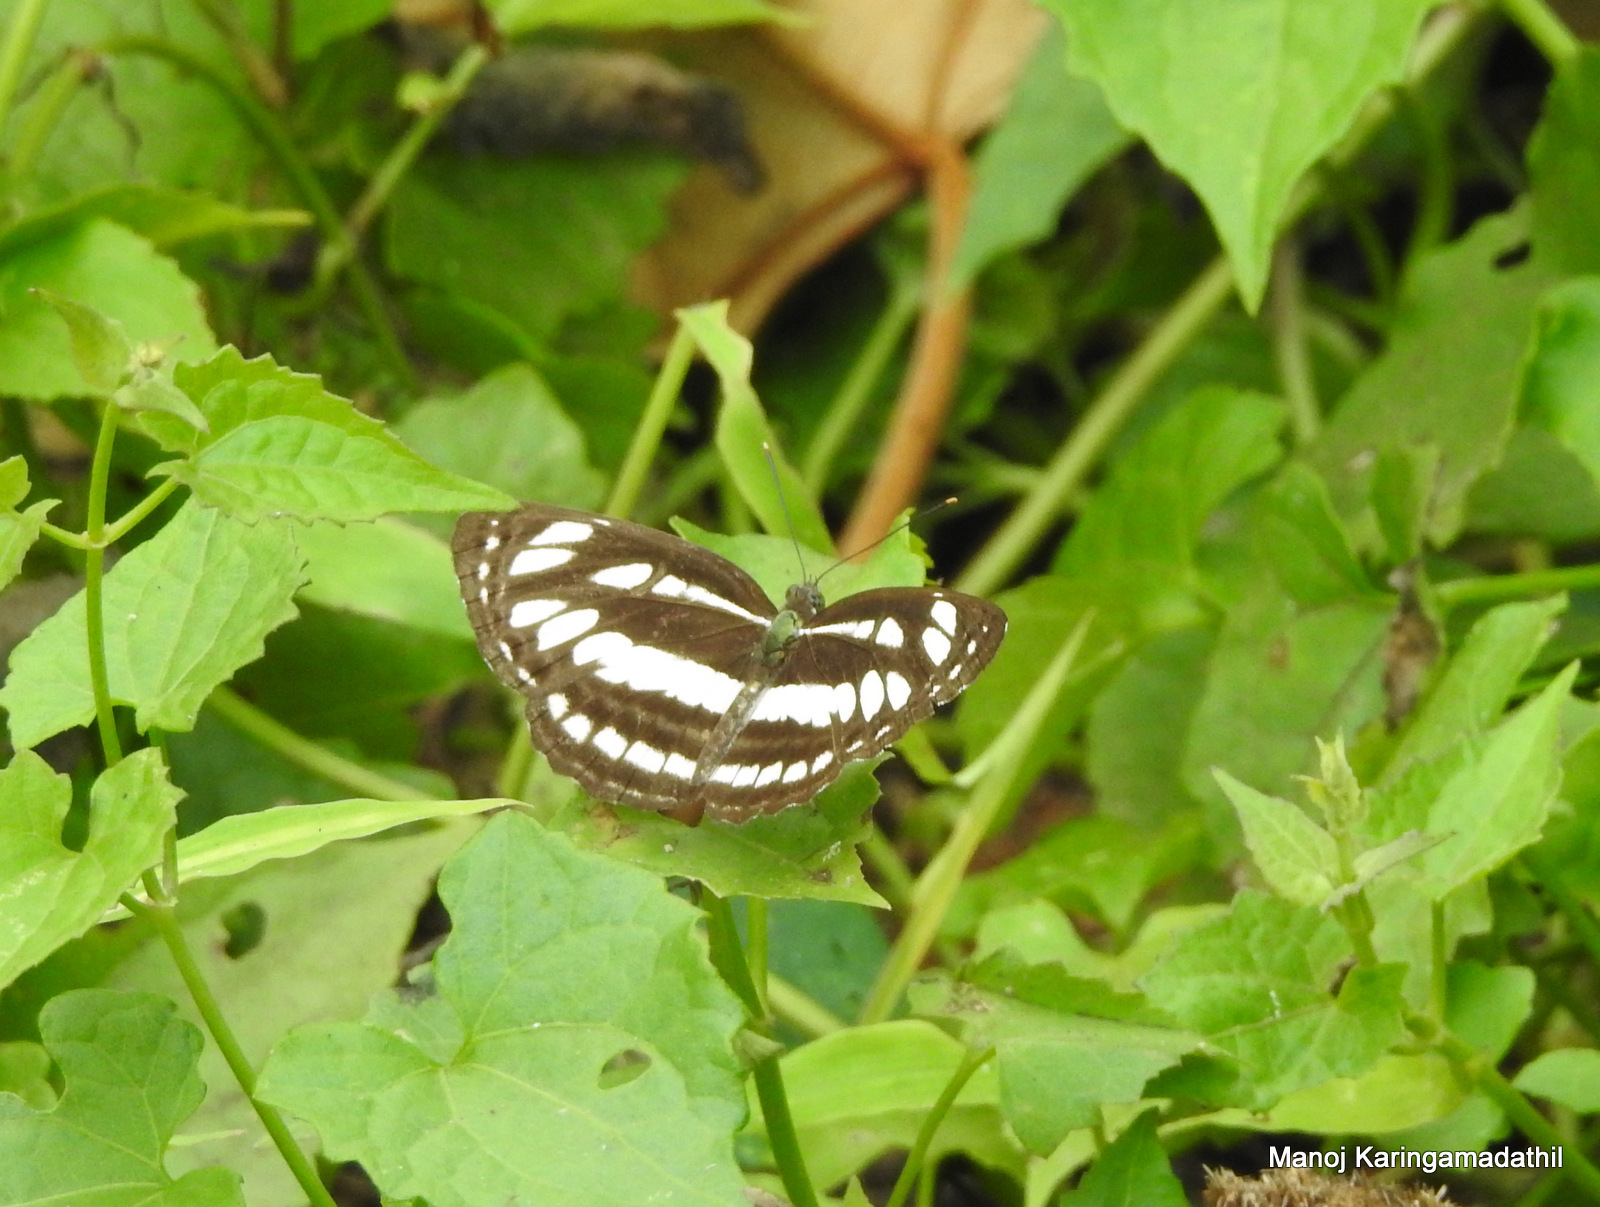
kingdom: Animalia
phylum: Arthropoda
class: Insecta
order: Lepidoptera
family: Nymphalidae
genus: Neptis
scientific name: Neptis hylas
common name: Common sailer
